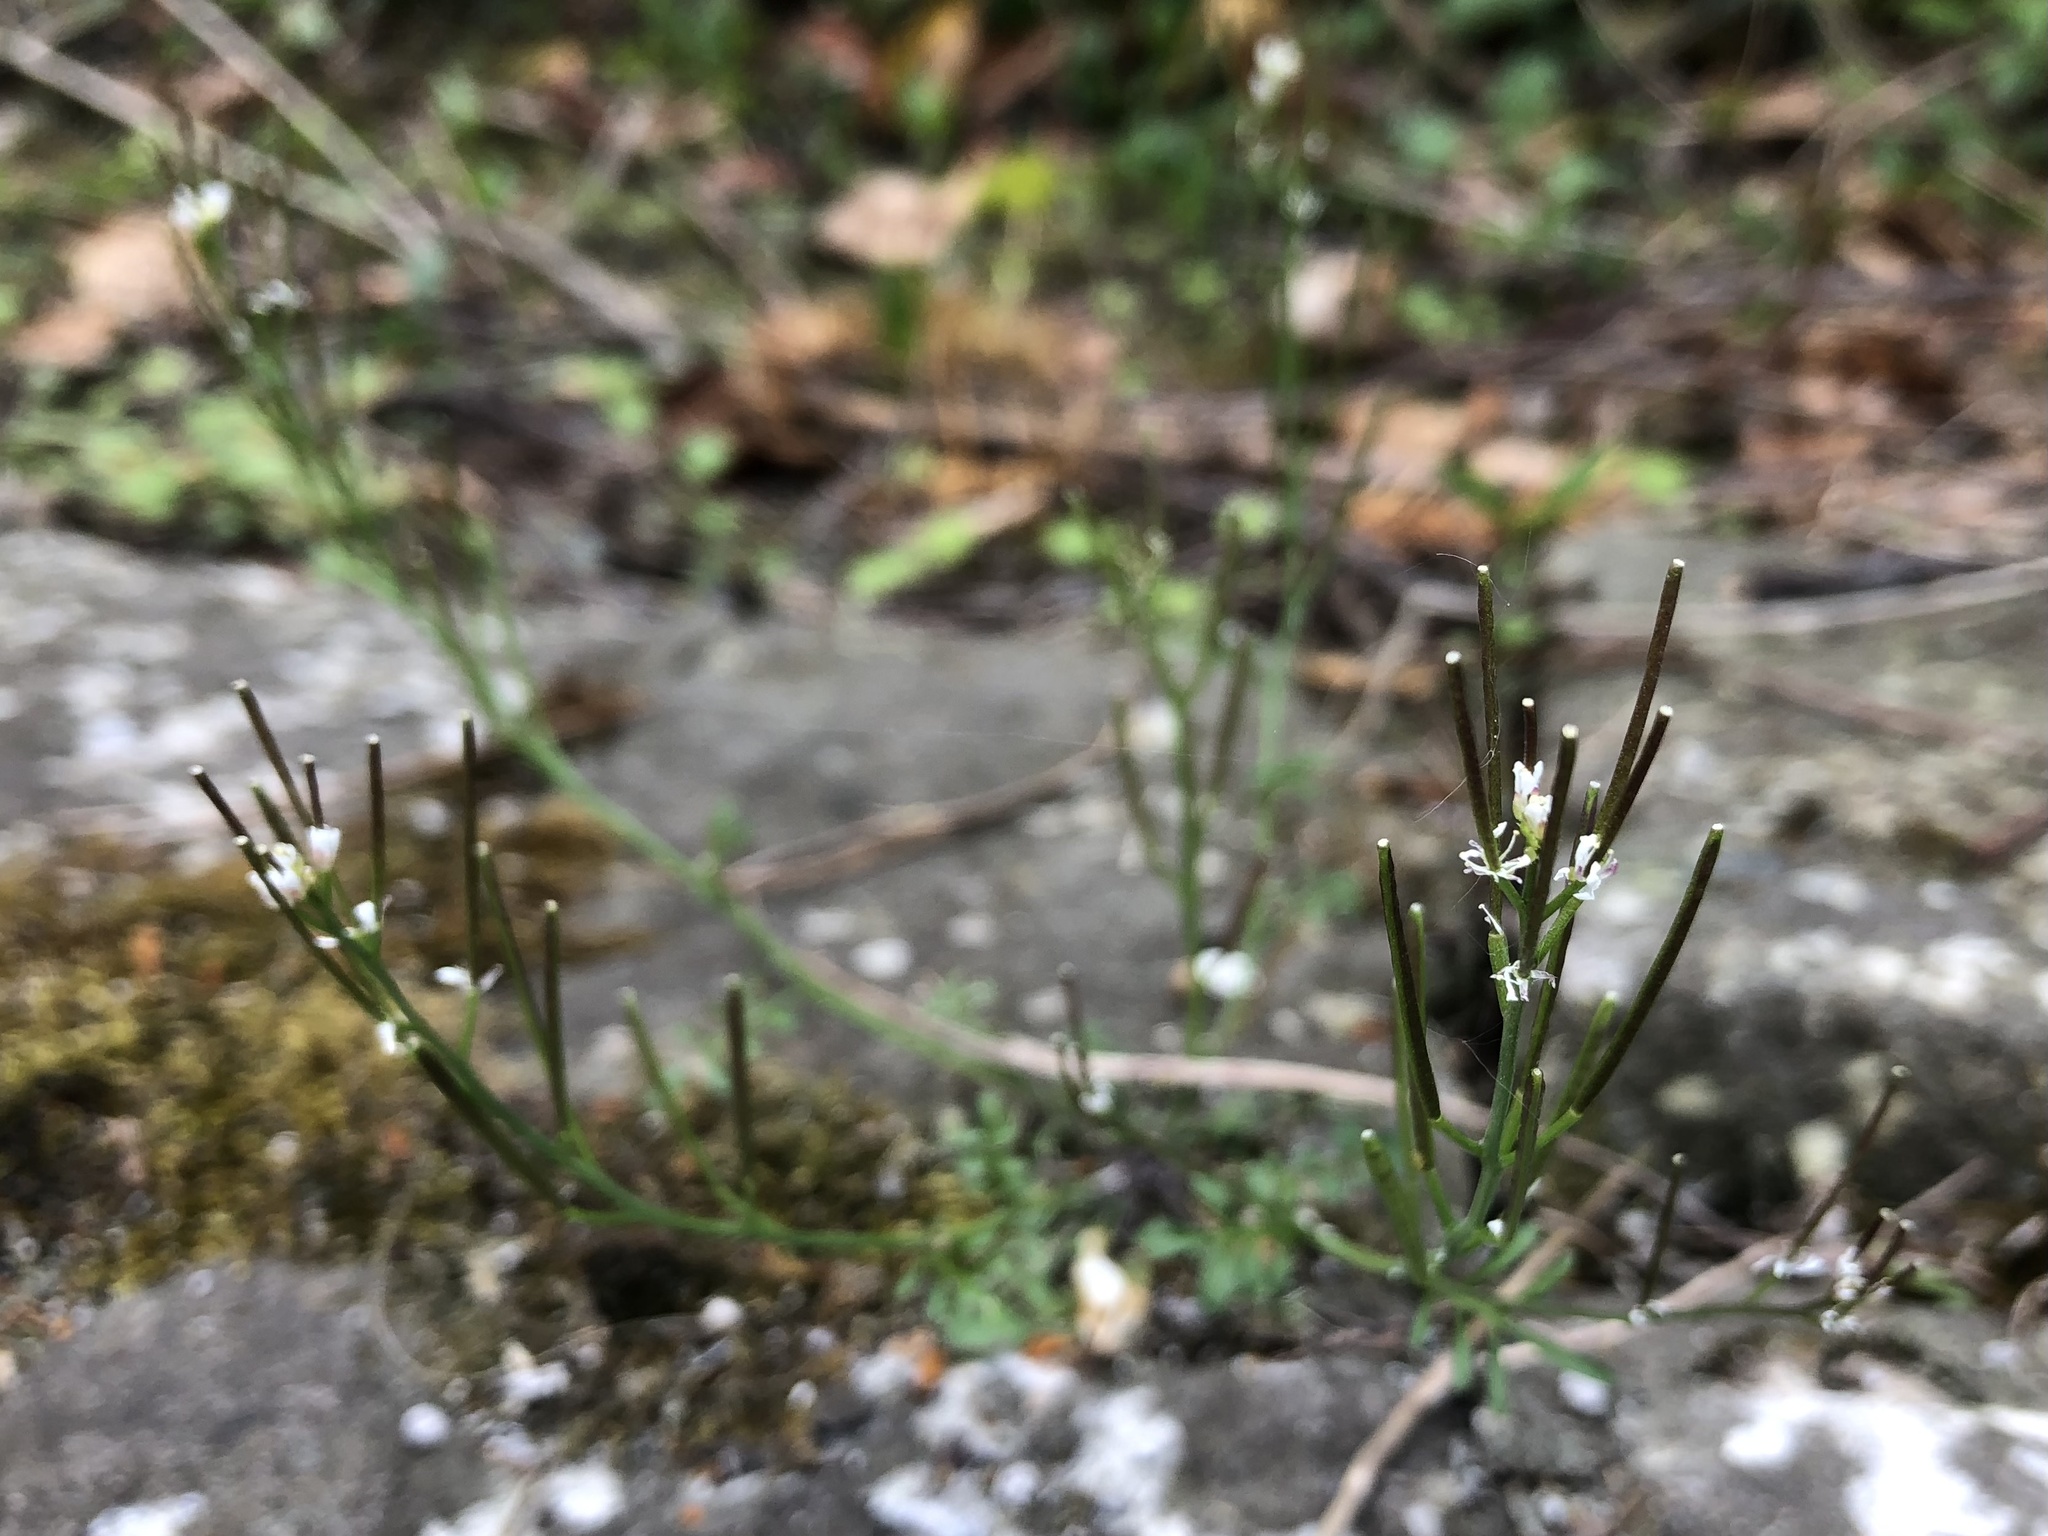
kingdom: Plantae
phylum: Tracheophyta
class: Magnoliopsida
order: Brassicales
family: Brassicaceae
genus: Cardamine
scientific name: Cardamine hirsuta
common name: Hairy bittercress
